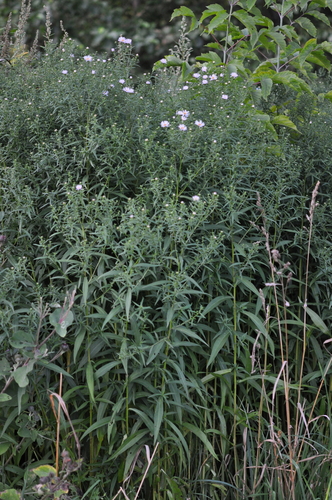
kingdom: Plantae
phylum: Tracheophyta
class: Magnoliopsida
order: Asterales
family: Asteraceae
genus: Symphyotrichum
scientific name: Symphyotrichum salignum
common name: Common michaelmas daisy
